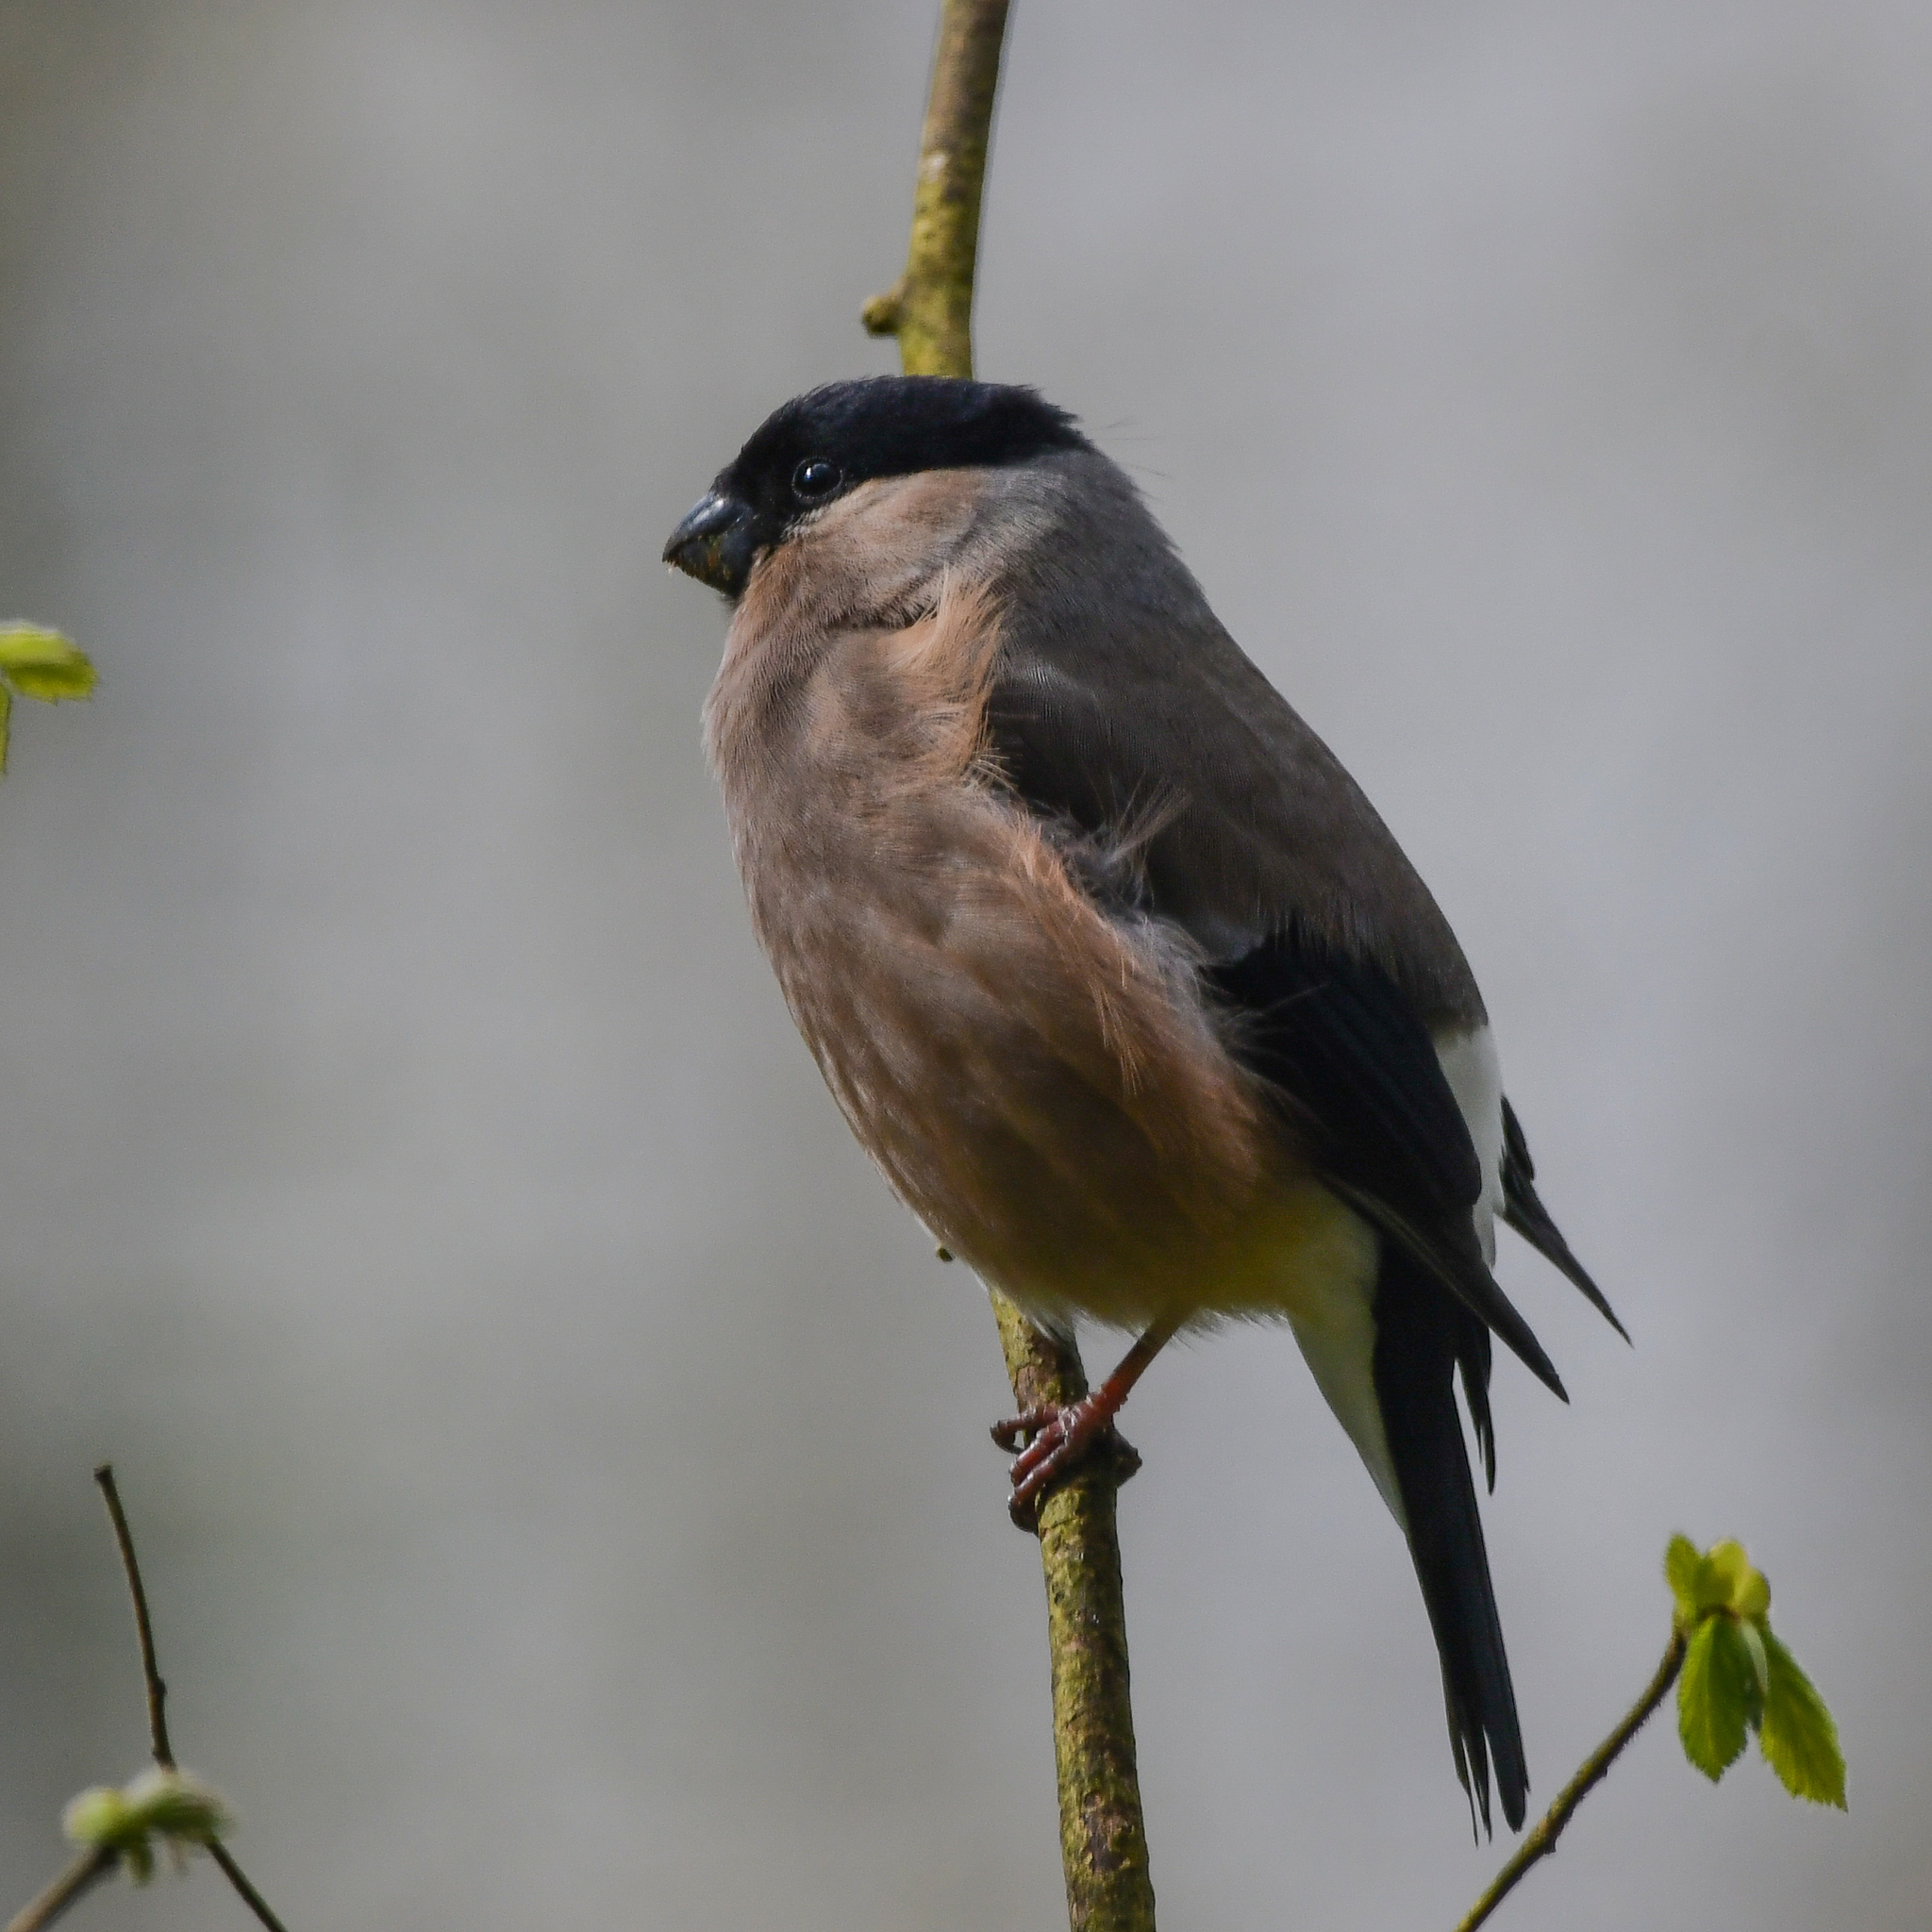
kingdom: Animalia
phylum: Chordata
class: Aves
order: Passeriformes
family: Fringillidae
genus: Pyrrhula
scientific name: Pyrrhula pyrrhula
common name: Eurasian bullfinch
